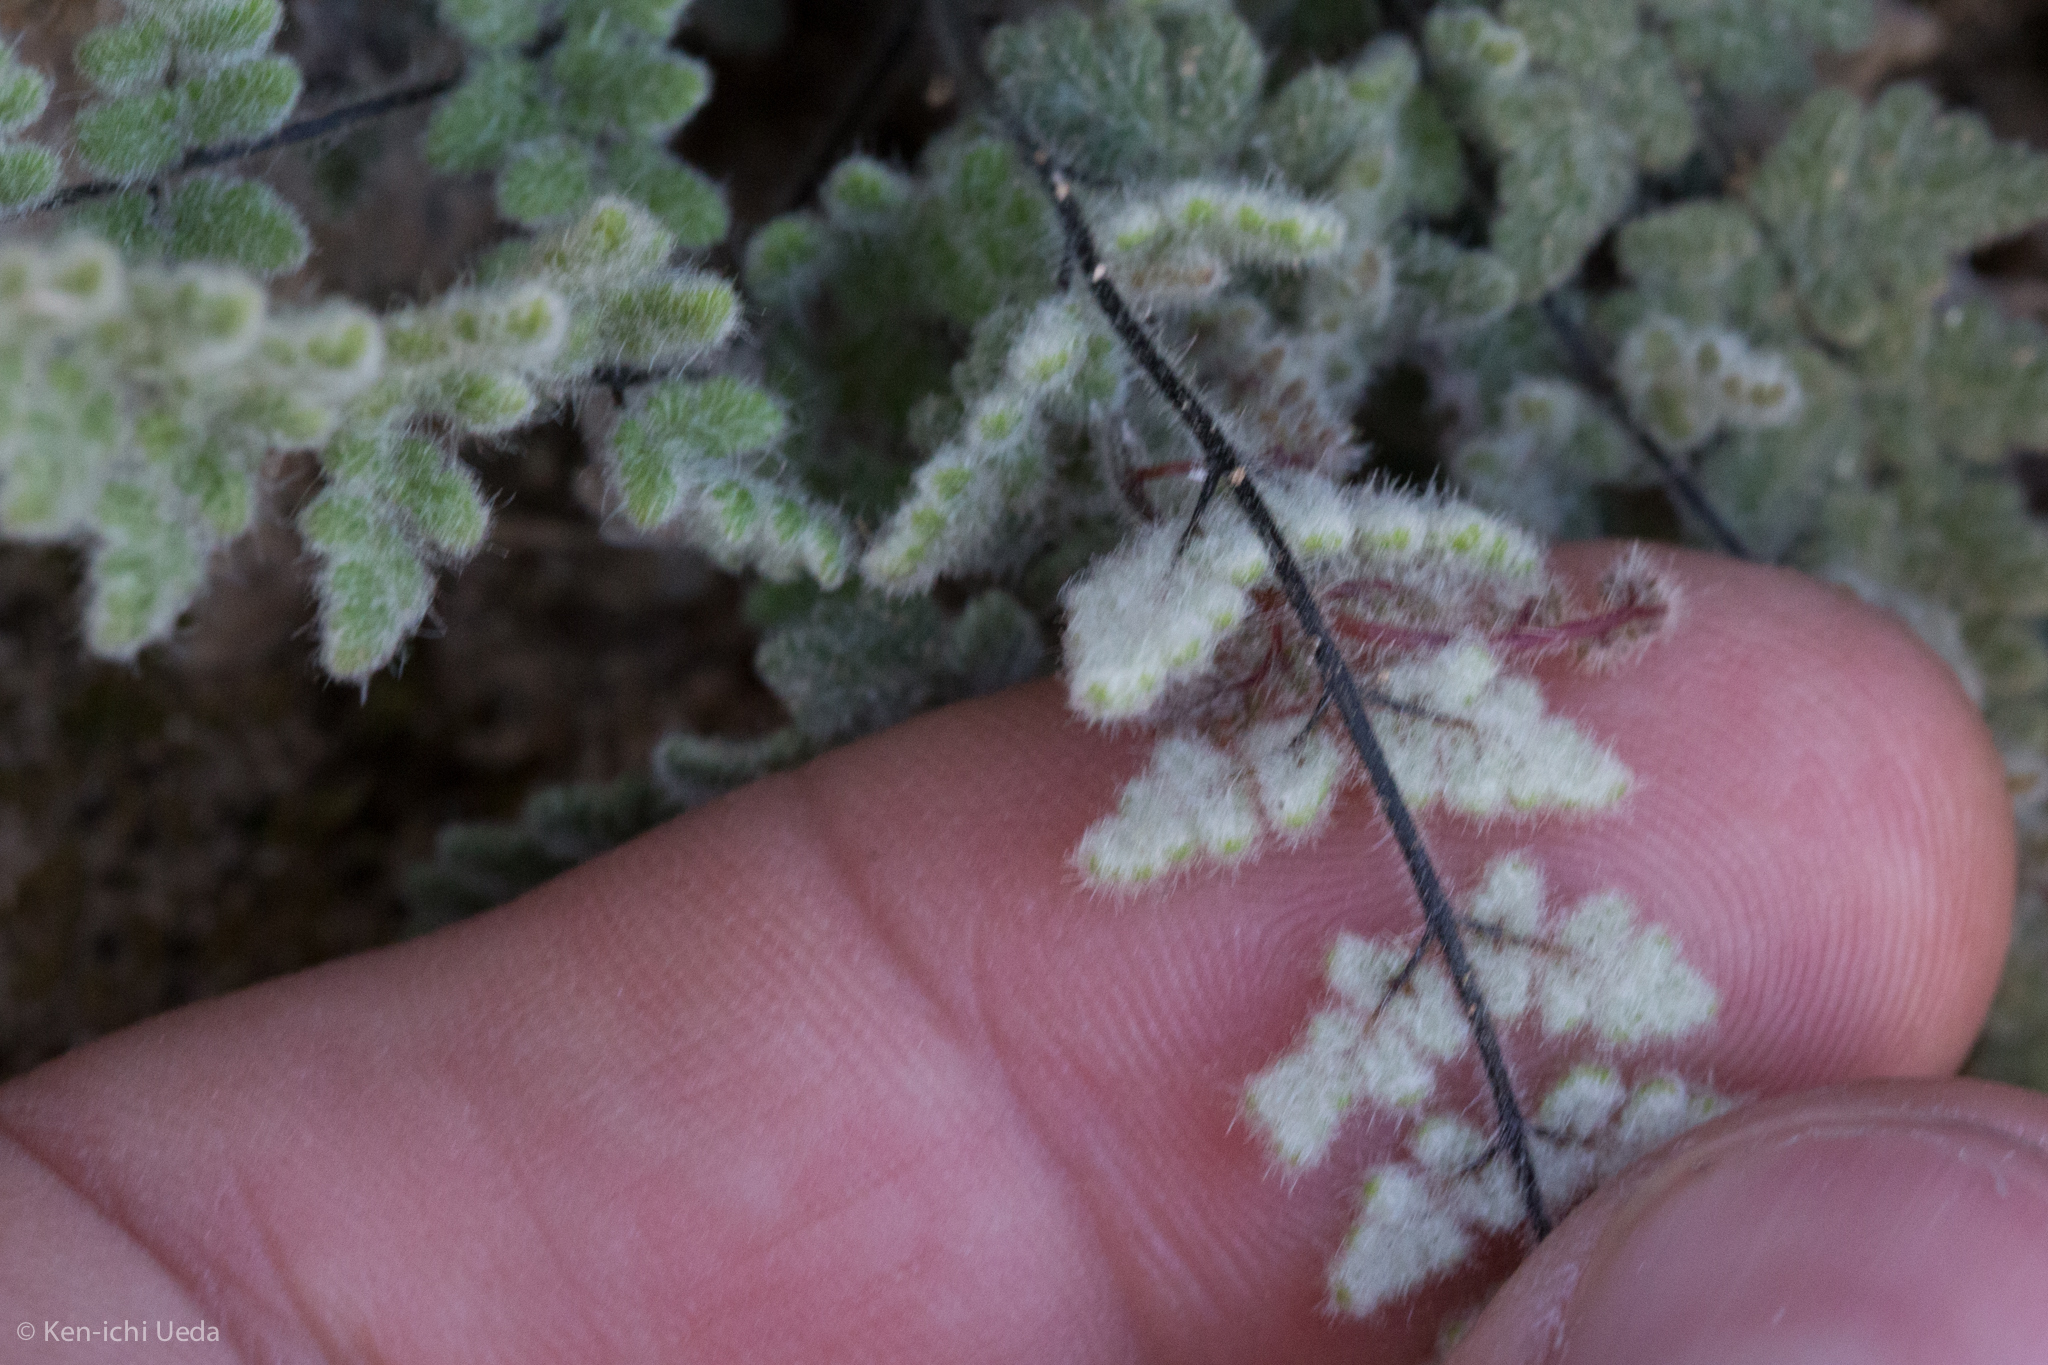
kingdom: Plantae
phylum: Tracheophyta
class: Polypodiopsida
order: Polypodiales
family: Pteridaceae
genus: Myriopteris
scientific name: Myriopteris parryi
